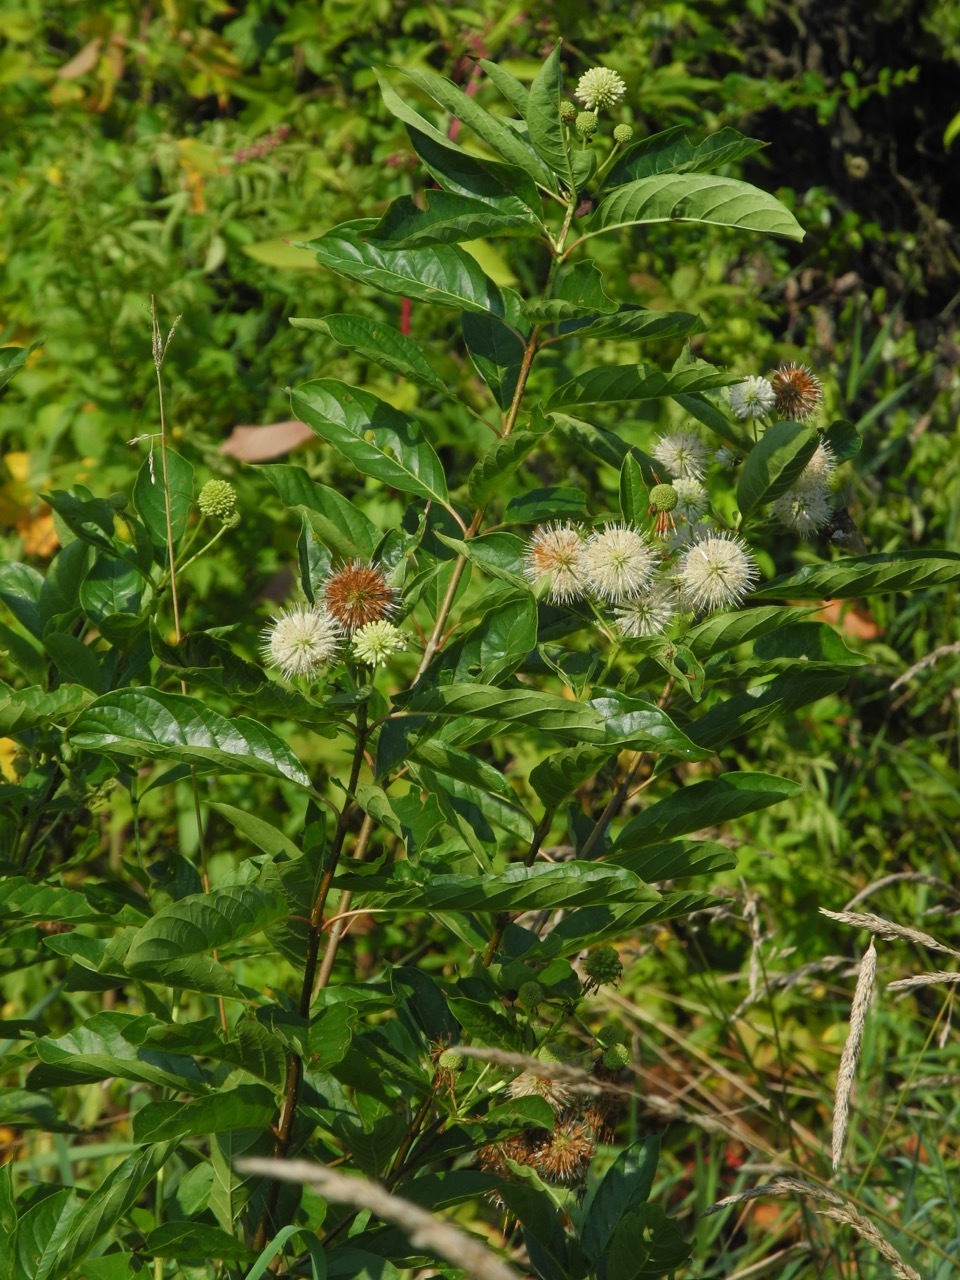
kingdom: Plantae
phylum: Tracheophyta
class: Magnoliopsida
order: Gentianales
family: Rubiaceae
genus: Cephalanthus
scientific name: Cephalanthus occidentalis
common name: Button-willow
